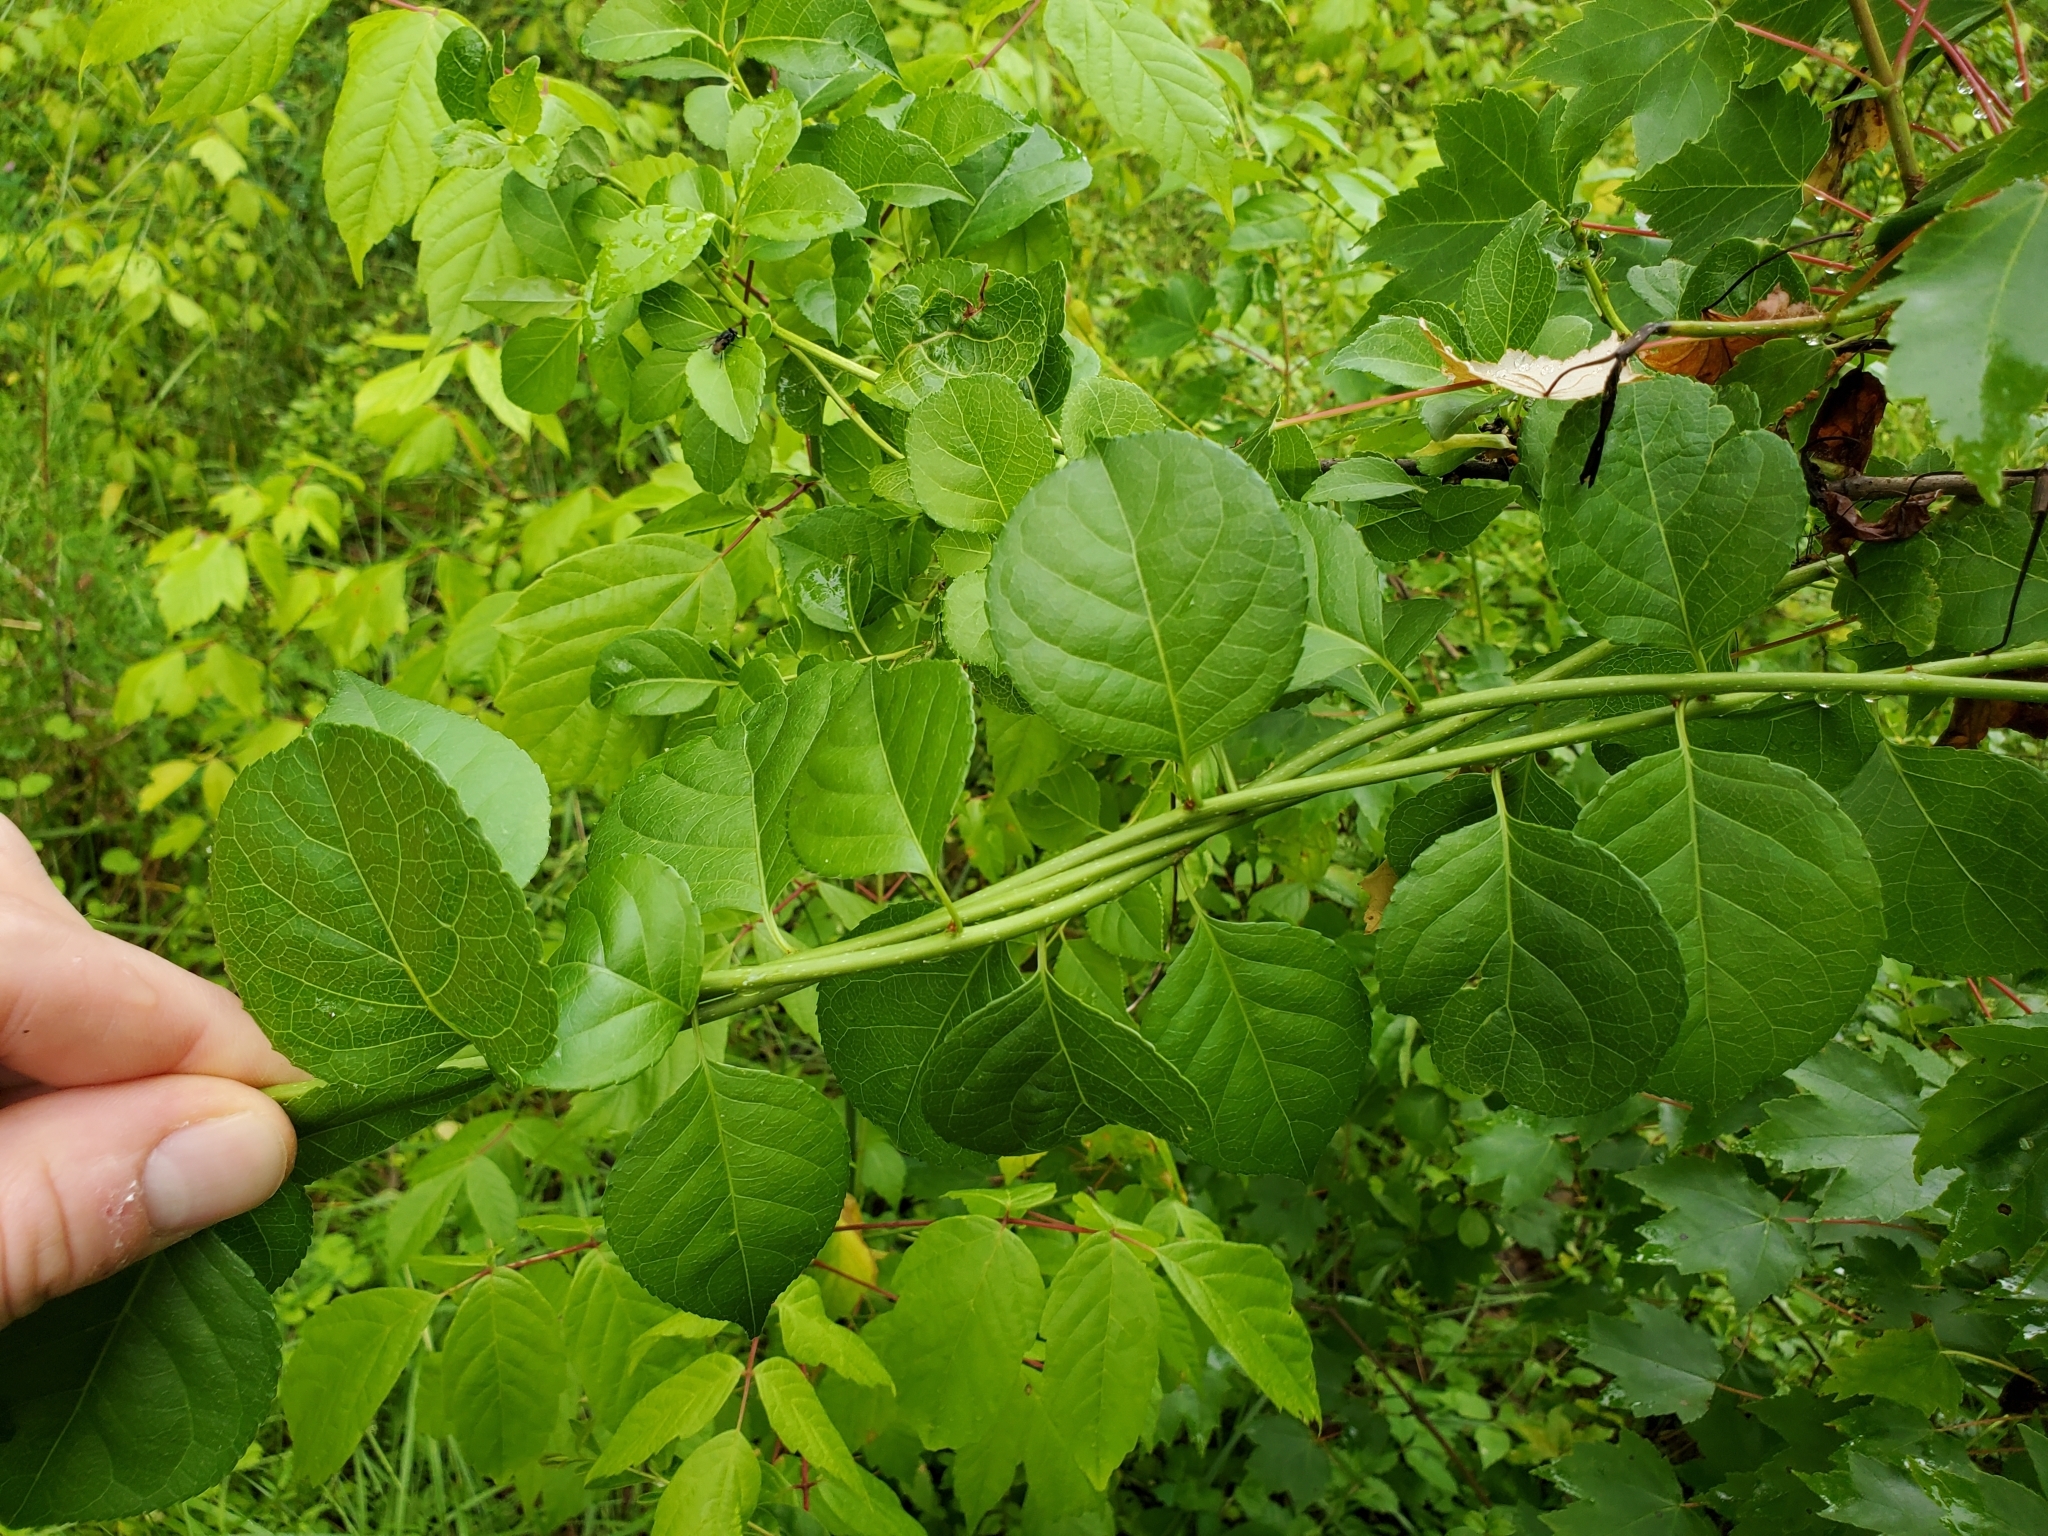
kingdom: Plantae
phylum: Tracheophyta
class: Magnoliopsida
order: Celastrales
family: Celastraceae
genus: Celastrus
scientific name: Celastrus orbiculatus
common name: Oriental bittersweet
